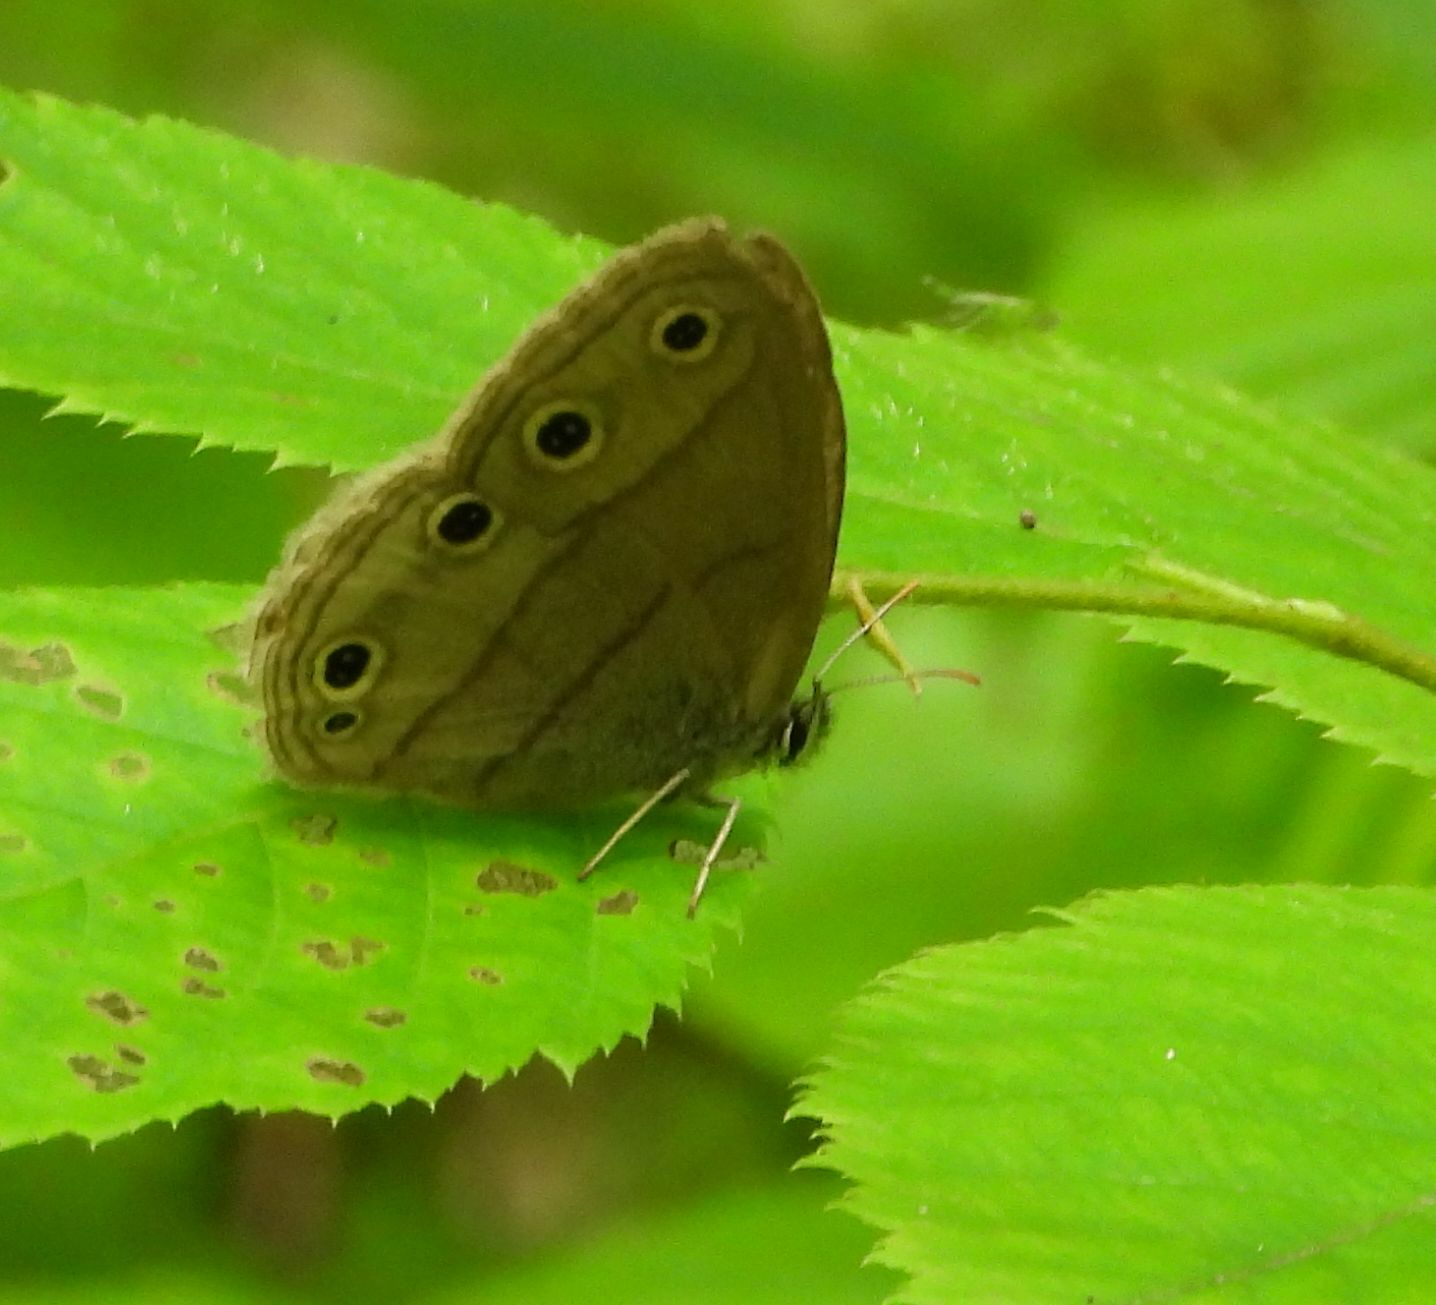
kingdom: Animalia
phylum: Arthropoda
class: Insecta
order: Lepidoptera
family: Nymphalidae
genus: Euptychia
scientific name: Euptychia cymela
